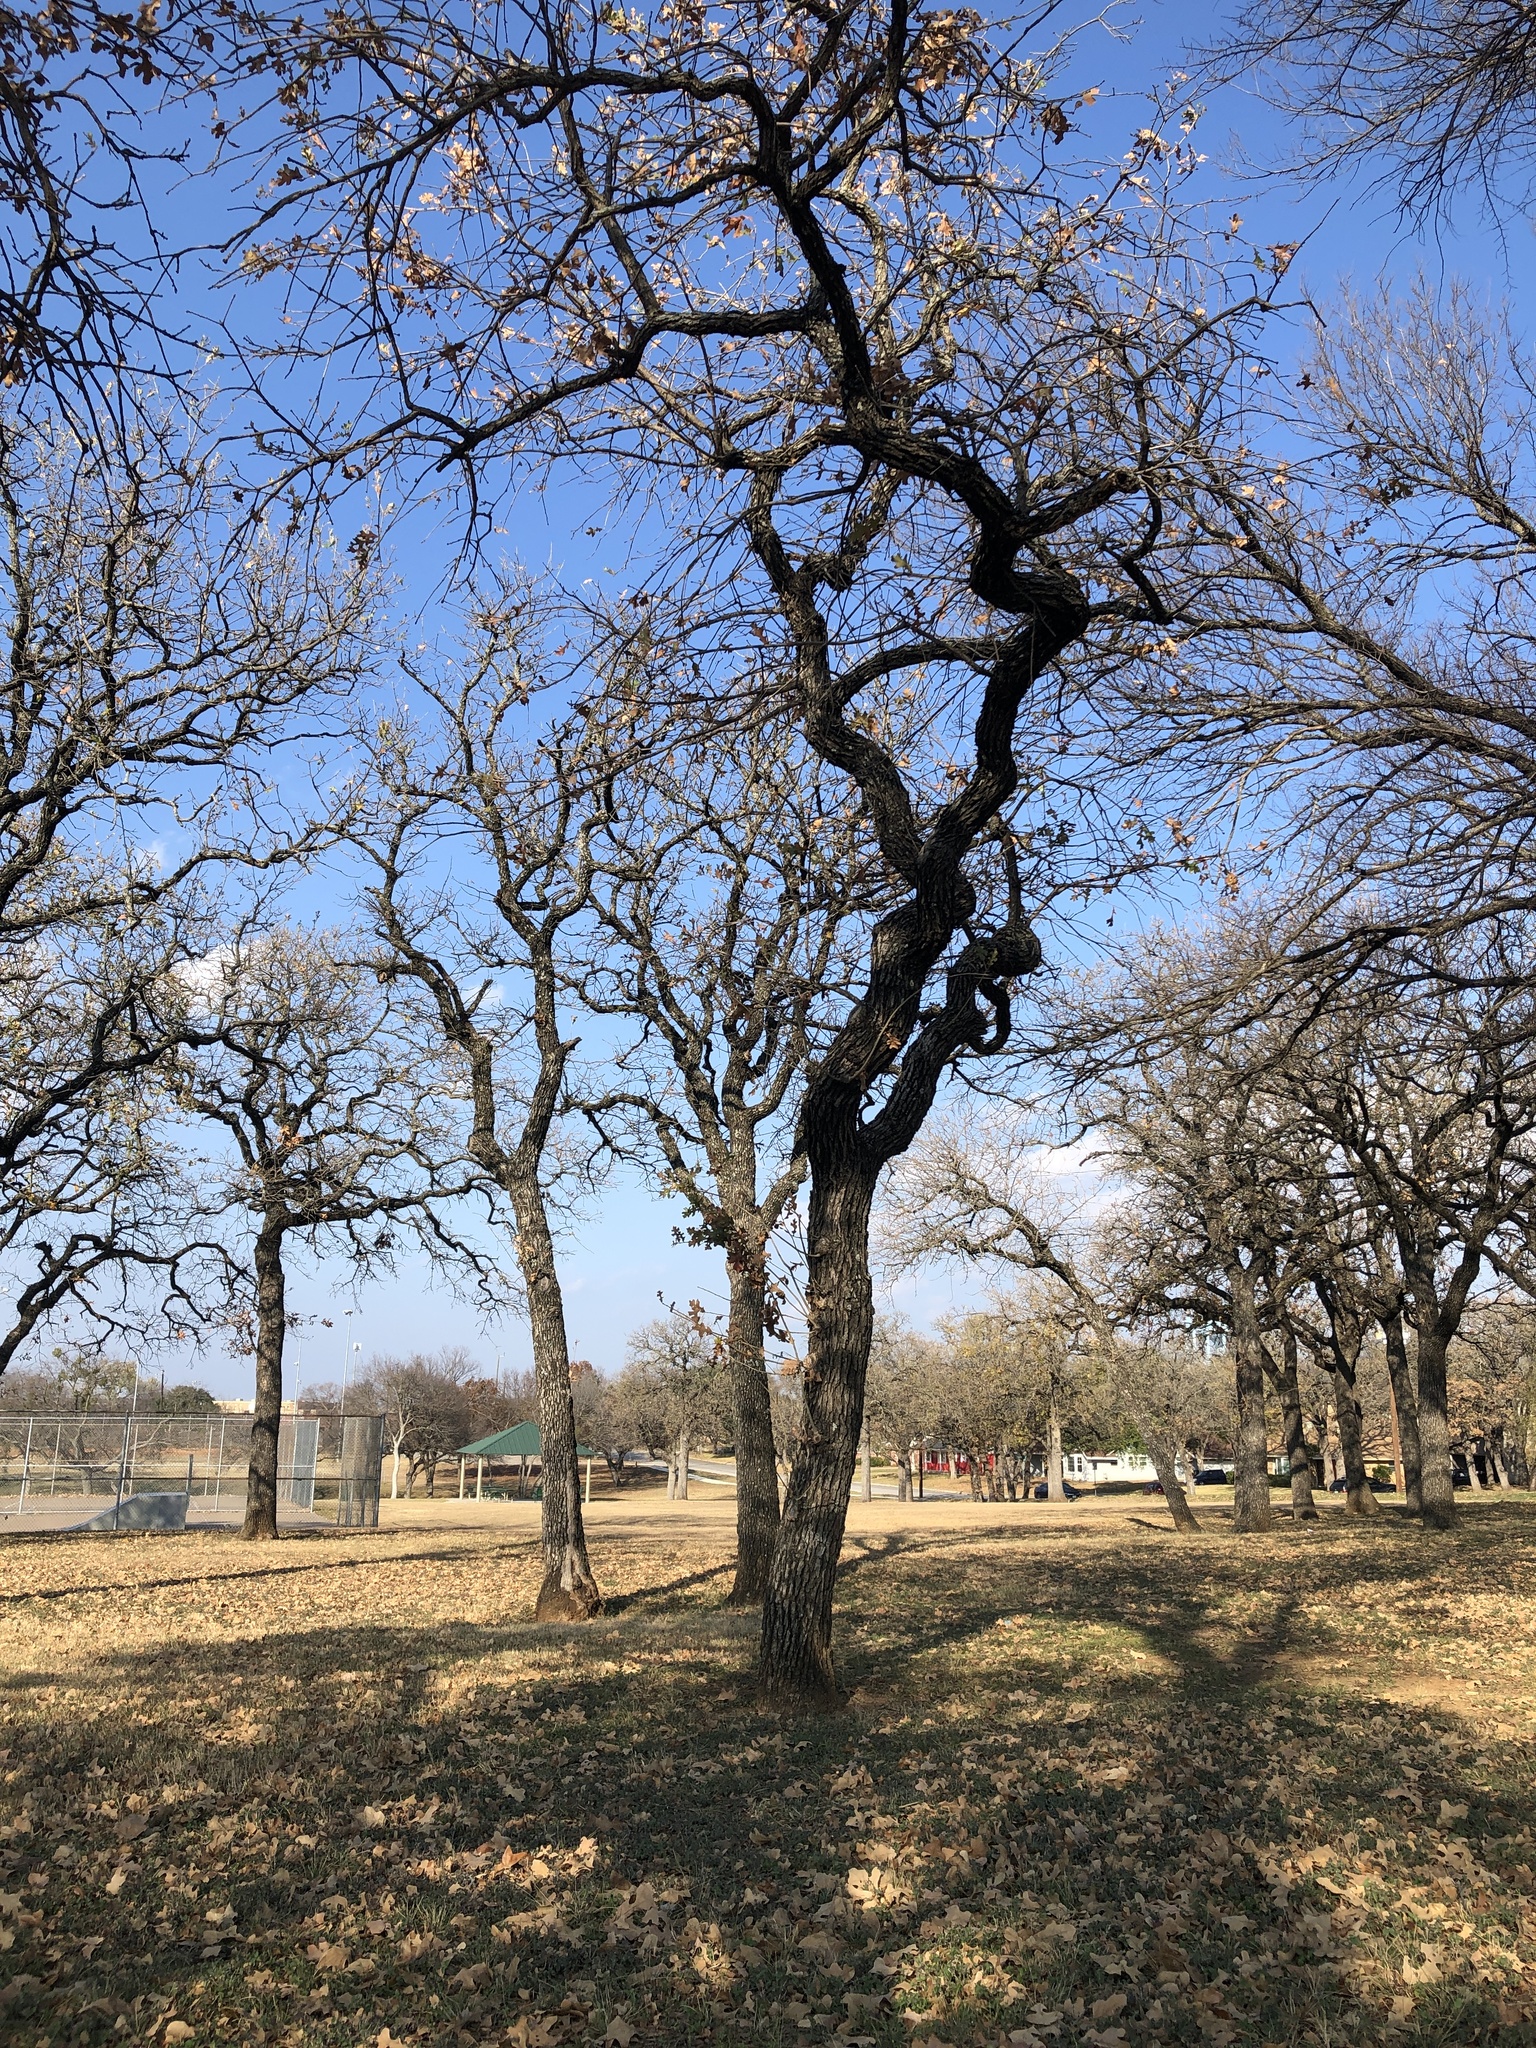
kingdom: Plantae
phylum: Tracheophyta
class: Magnoliopsida
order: Fagales
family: Fagaceae
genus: Quercus
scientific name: Quercus stellata
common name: Post oak
